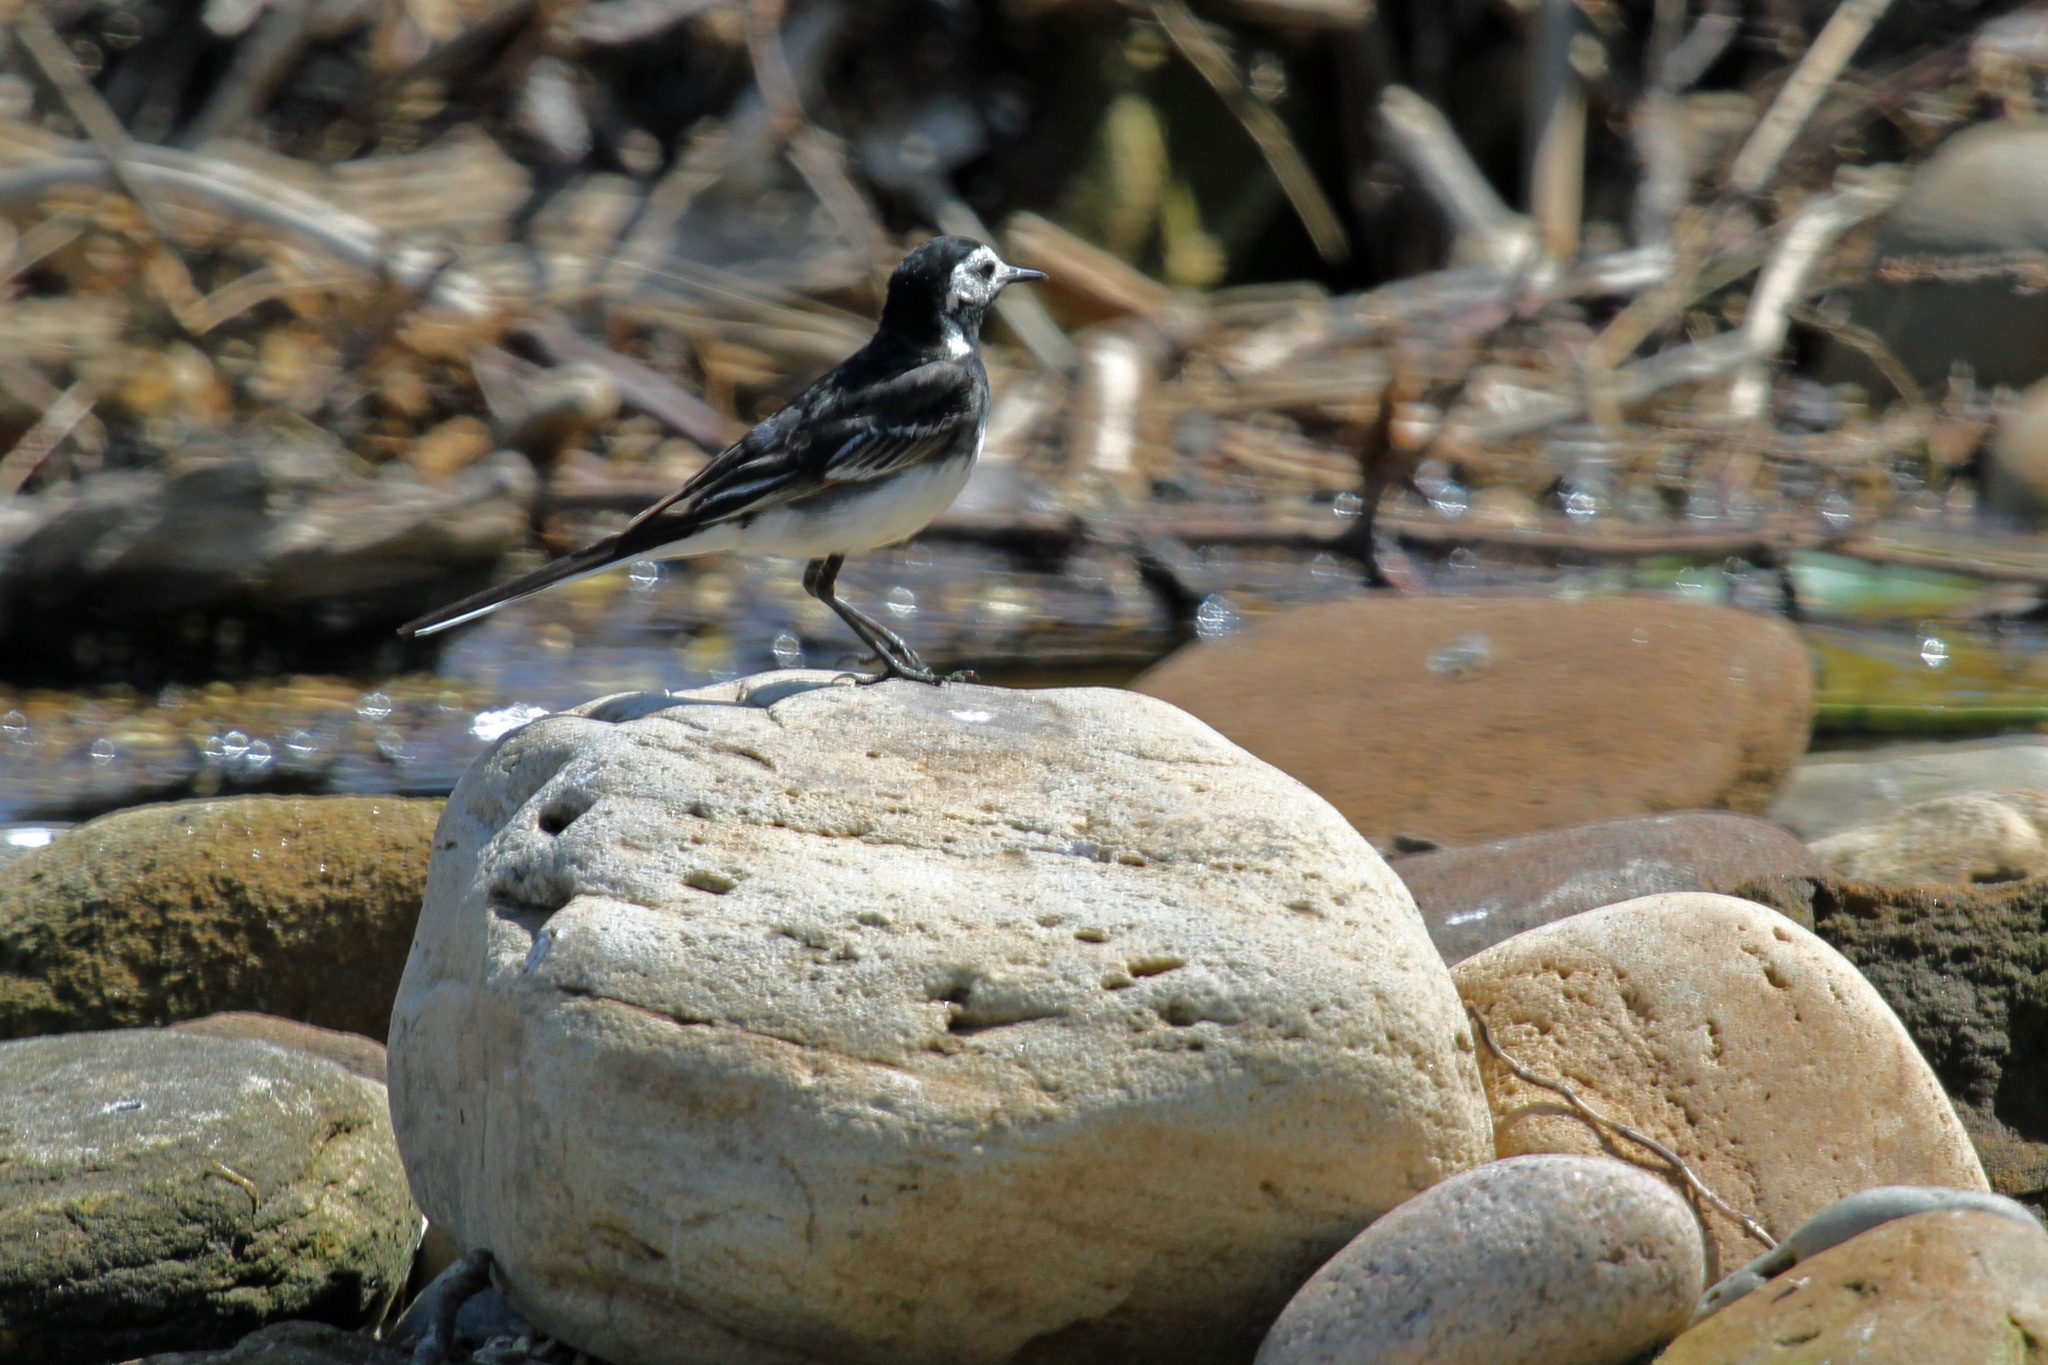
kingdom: Animalia
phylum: Chordata
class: Aves
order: Passeriformes
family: Motacillidae
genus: Motacilla
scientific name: Motacilla alba
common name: White wagtail
